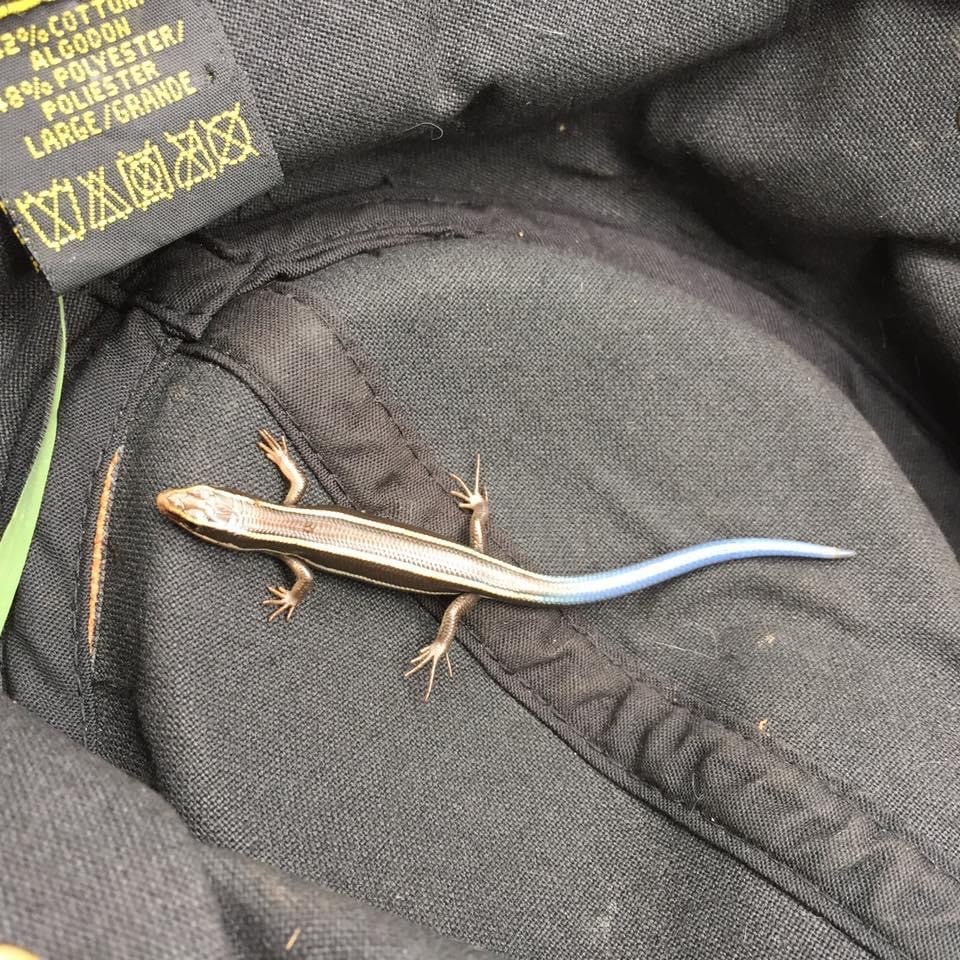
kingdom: Animalia
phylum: Chordata
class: Squamata
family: Scincidae
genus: Plestiodon
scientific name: Plestiodon skiltonianus
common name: Coronado island skink [interparietalis]
